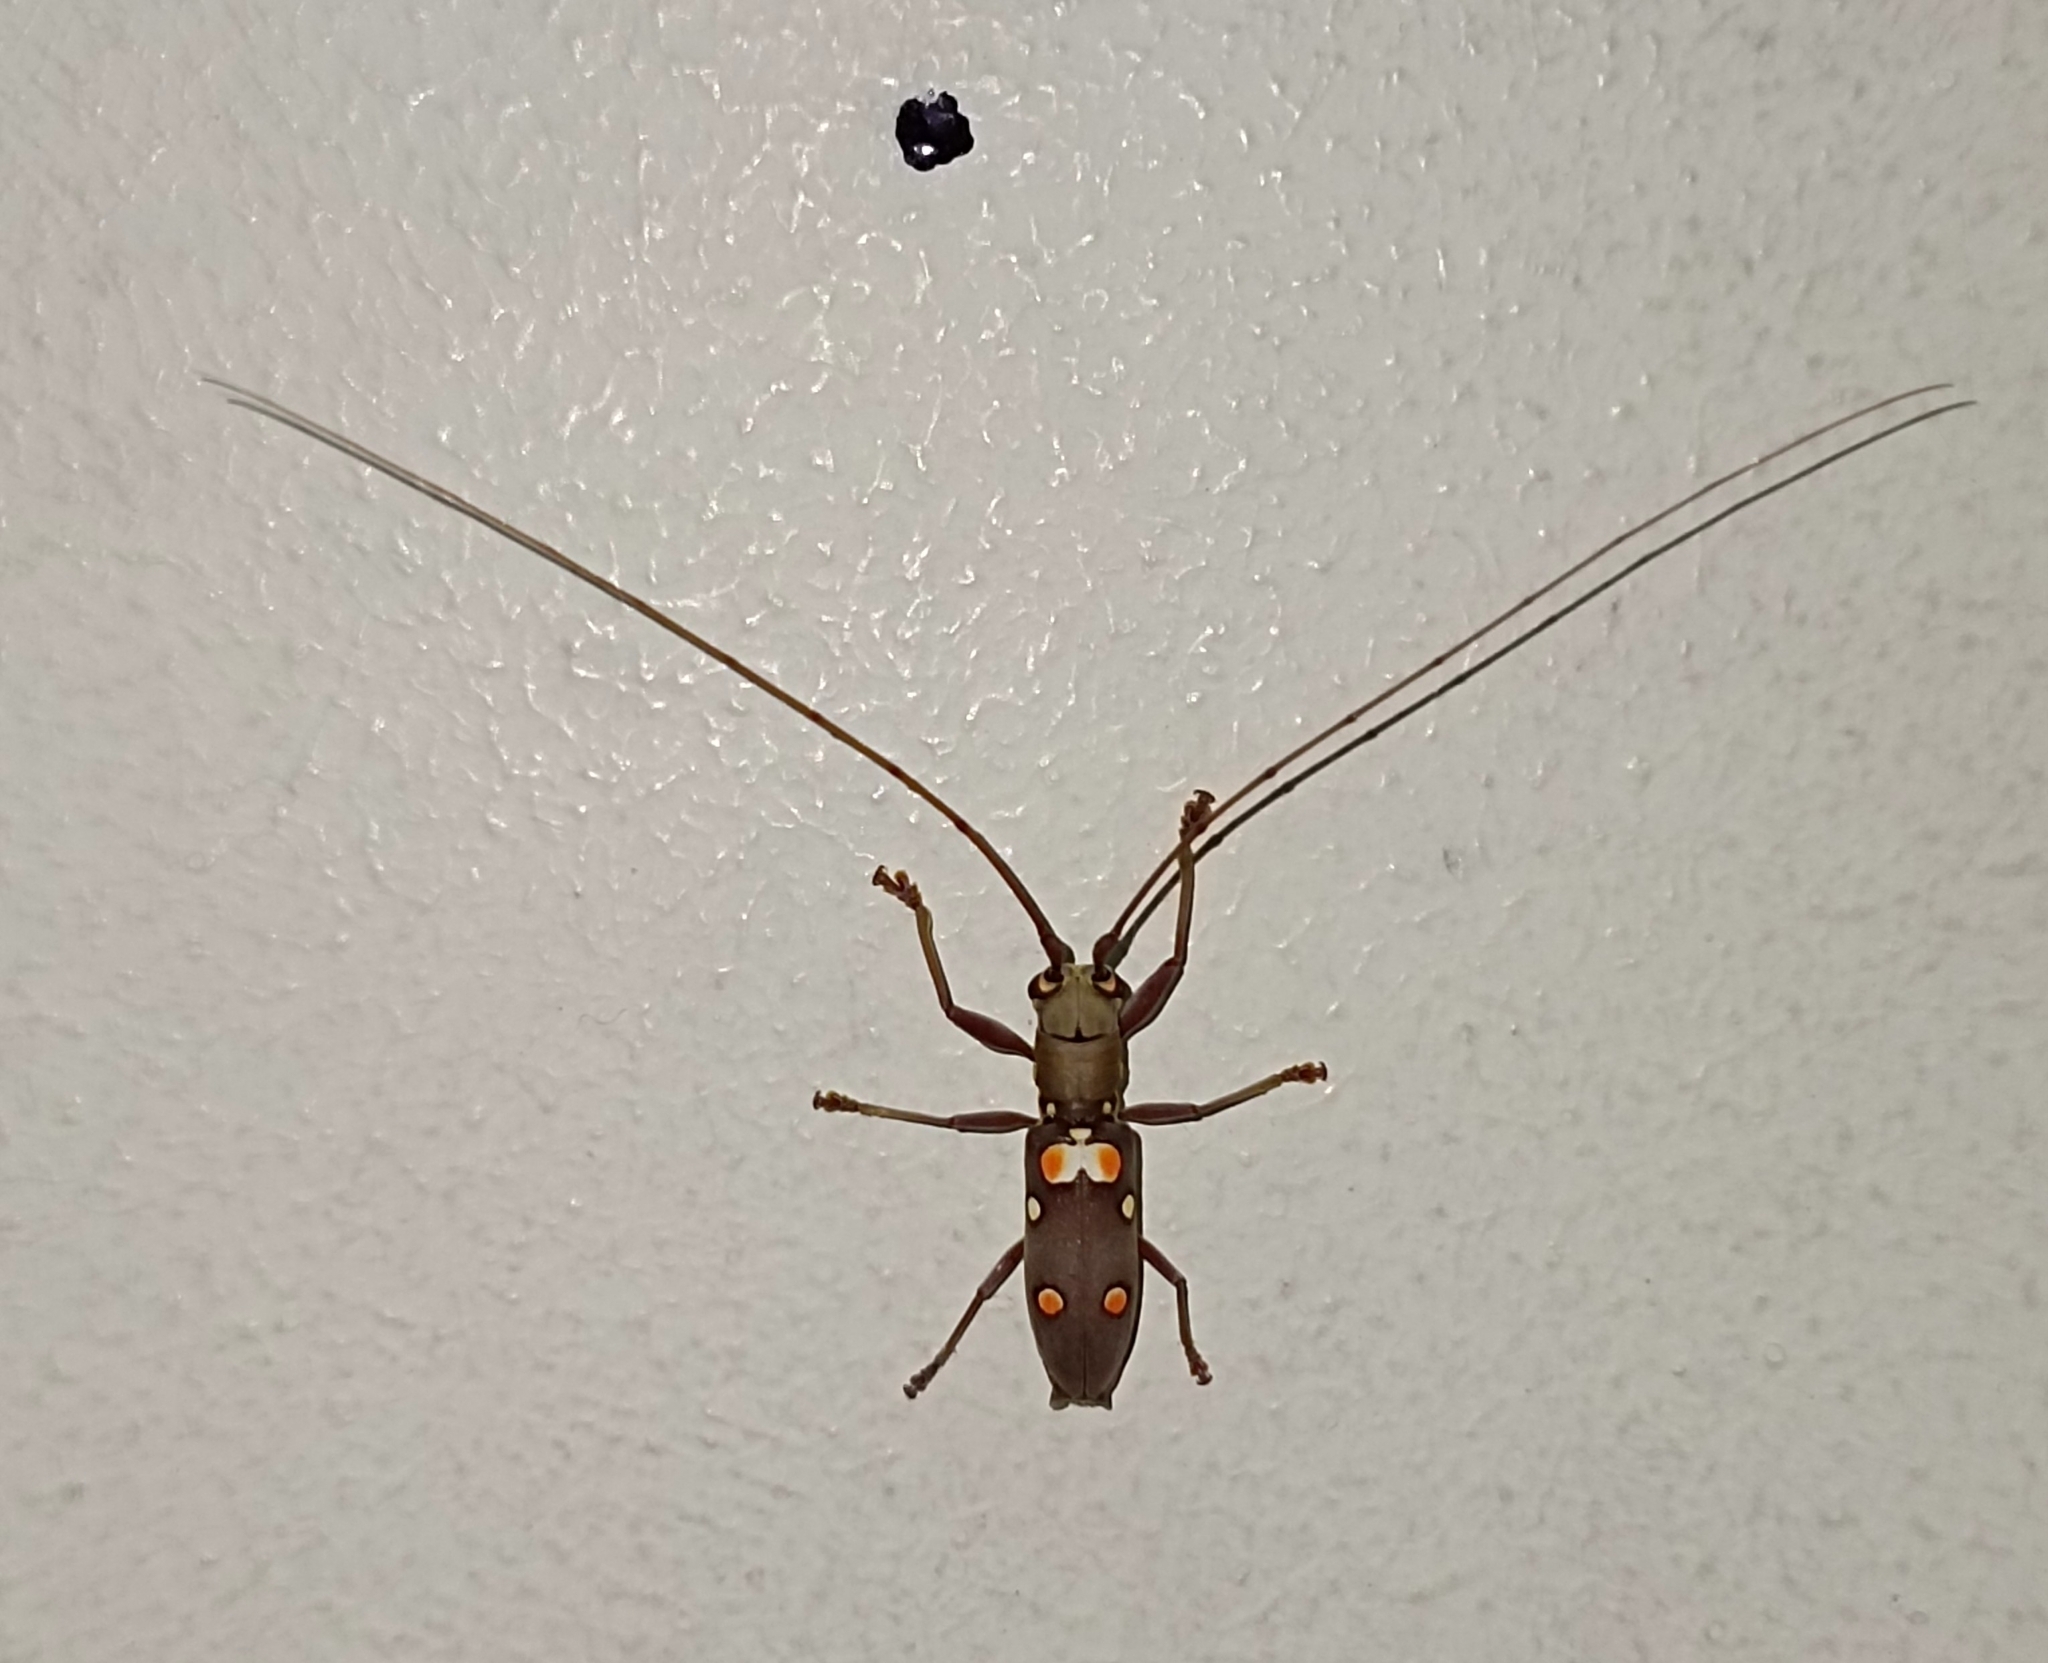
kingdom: Animalia
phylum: Arthropoda
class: Insecta
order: Coleoptera
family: Cerambycidae
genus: Olenecamptus
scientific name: Olenecamptus bilobus
